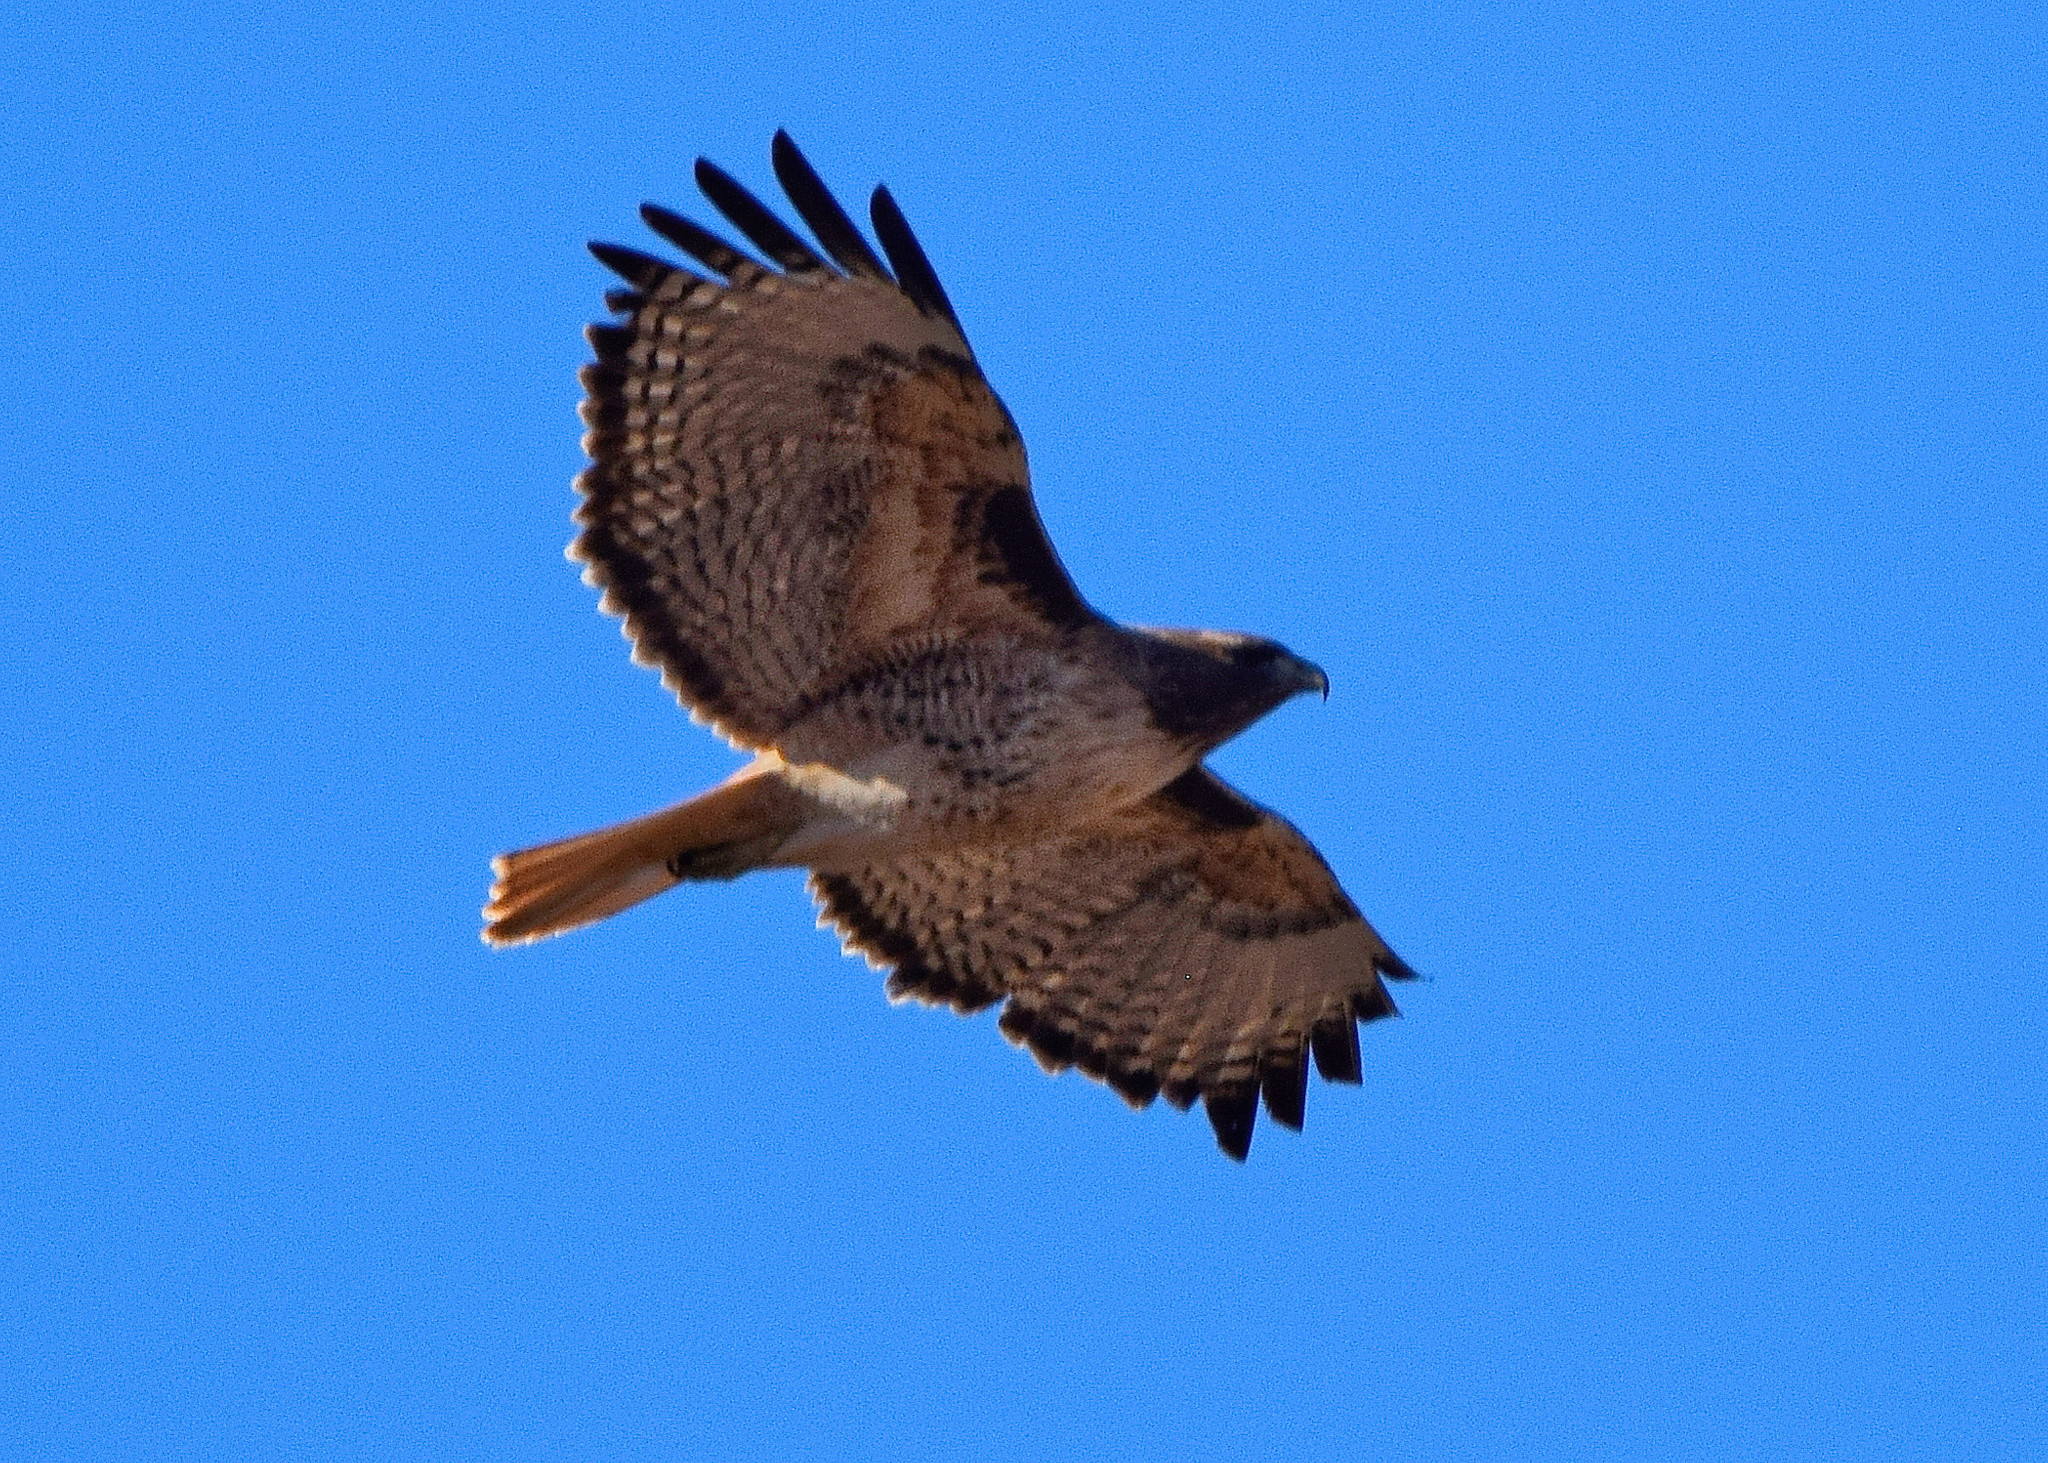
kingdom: Animalia
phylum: Chordata
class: Aves
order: Accipitriformes
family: Accipitridae
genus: Buteo
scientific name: Buteo jamaicensis
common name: Red-tailed hawk
